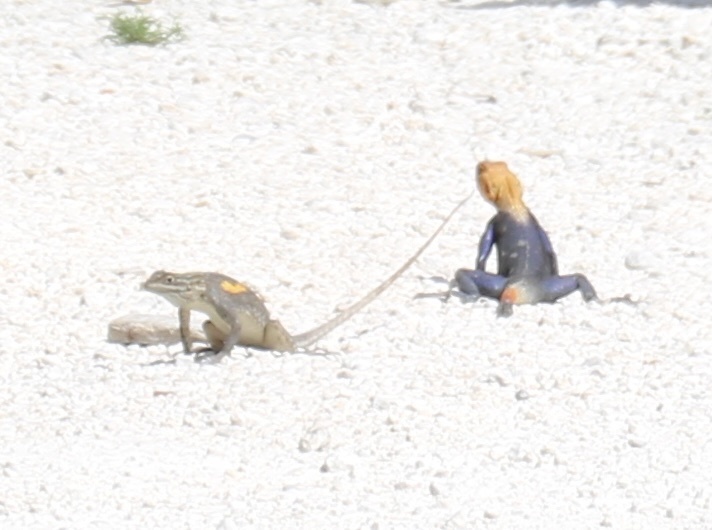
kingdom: Animalia
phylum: Chordata
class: Squamata
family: Agamidae
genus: Agama
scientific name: Agama picticauda
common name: Red-headed agama
